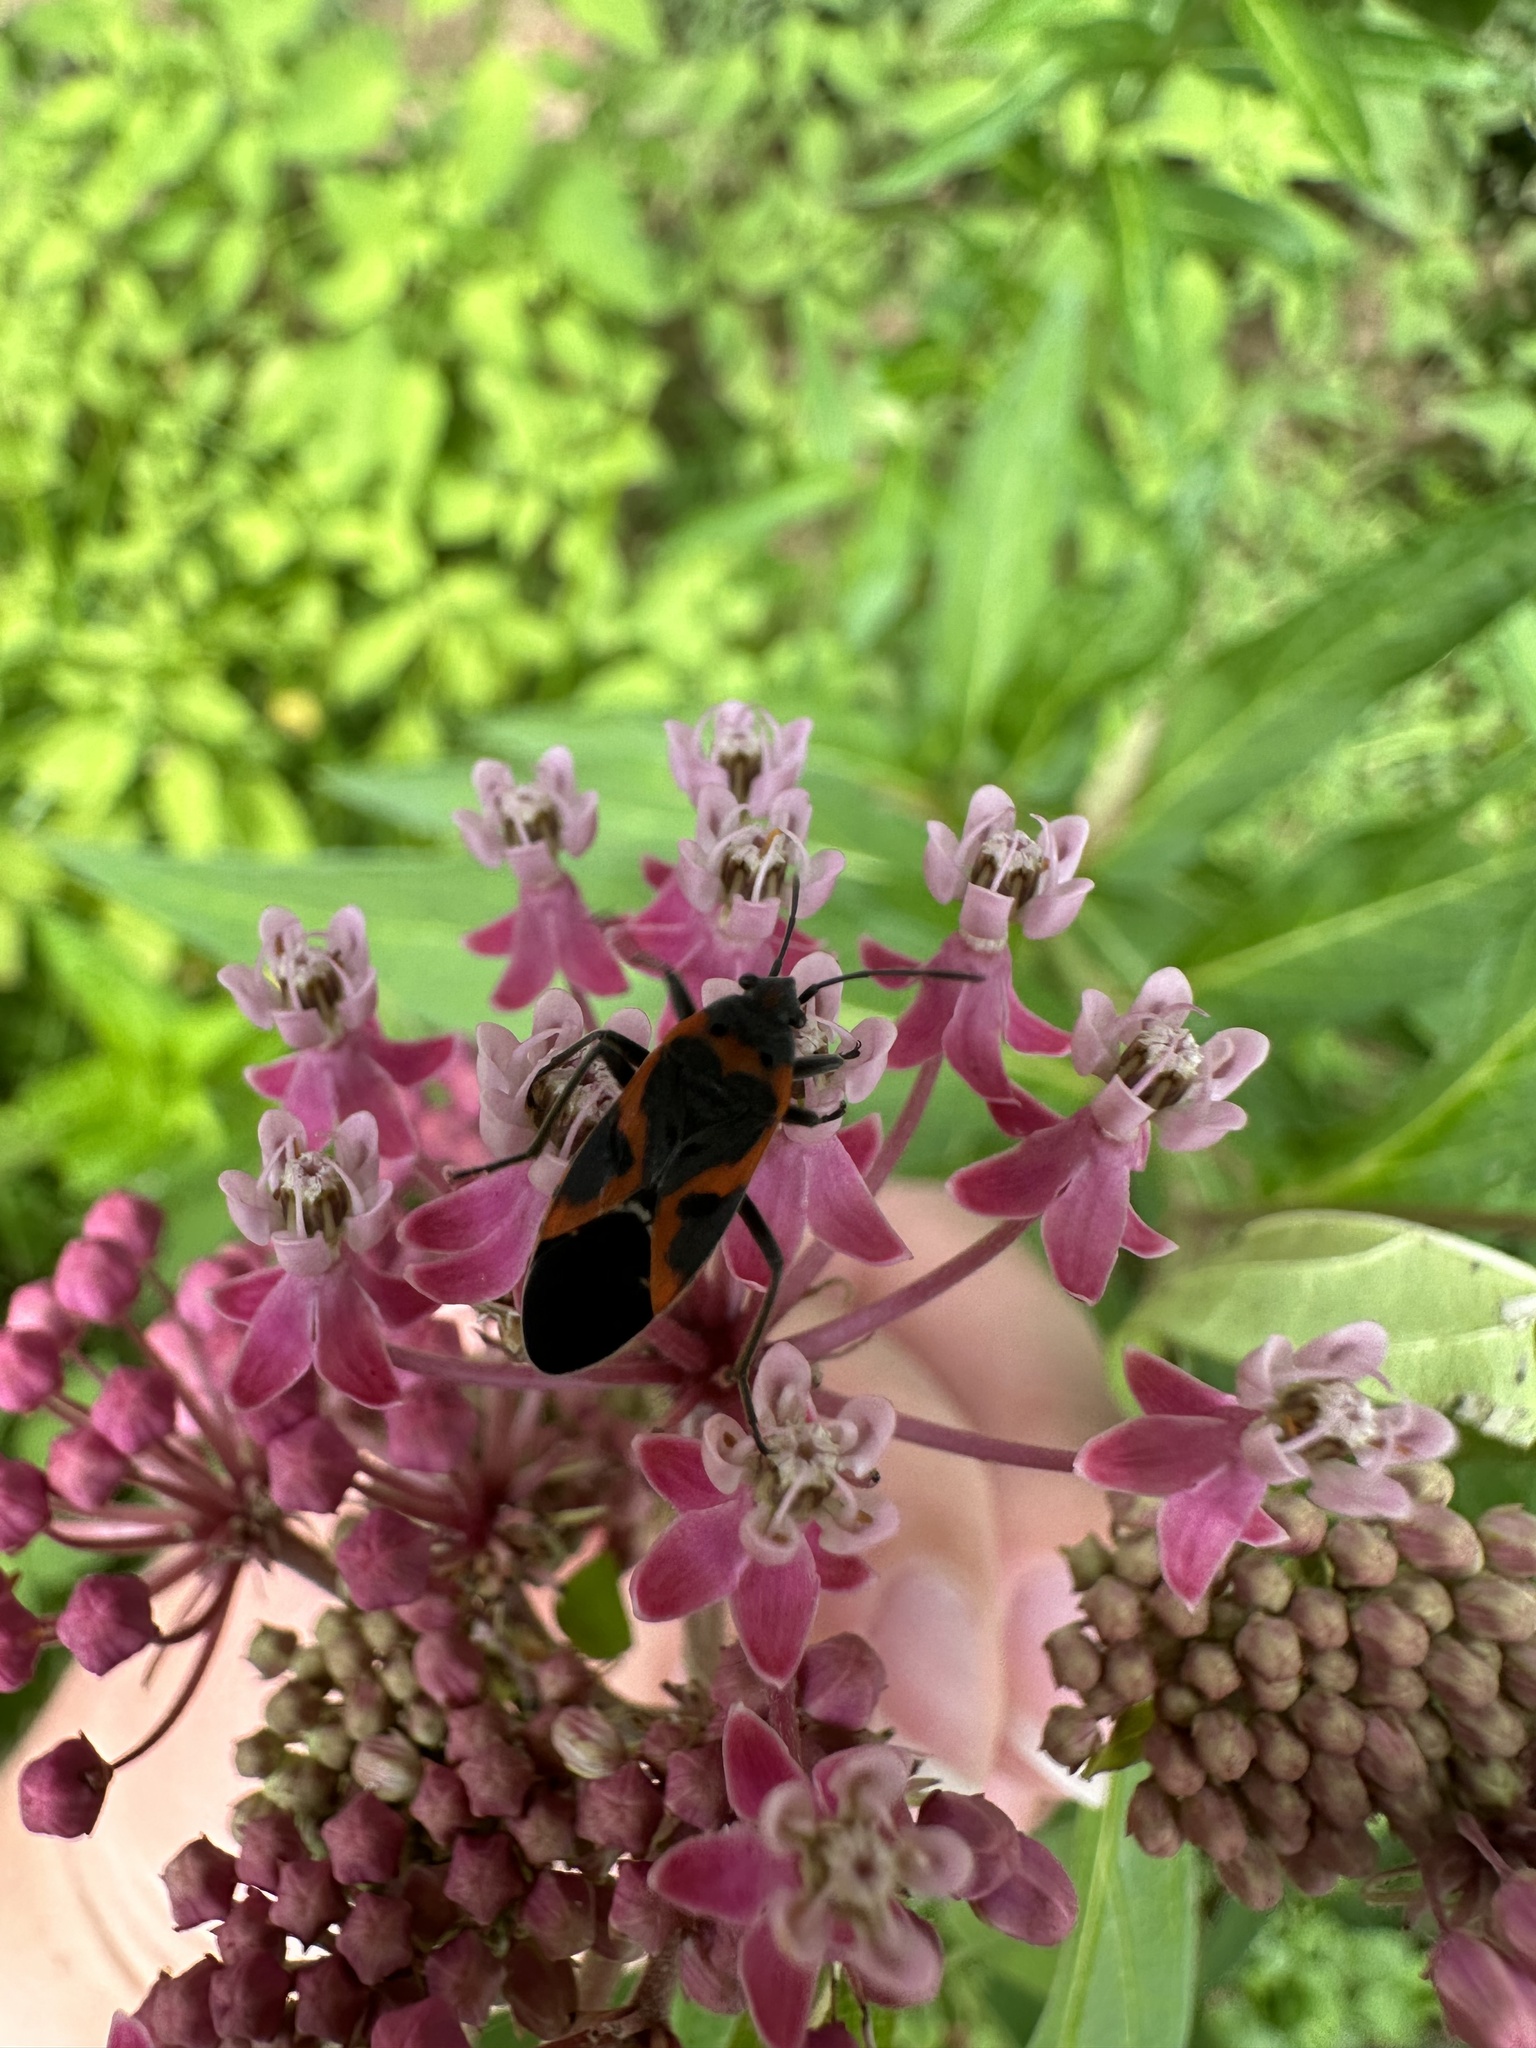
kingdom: Animalia
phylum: Arthropoda
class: Insecta
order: Hemiptera
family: Lygaeidae
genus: Lygaeus
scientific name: Lygaeus kalmii
